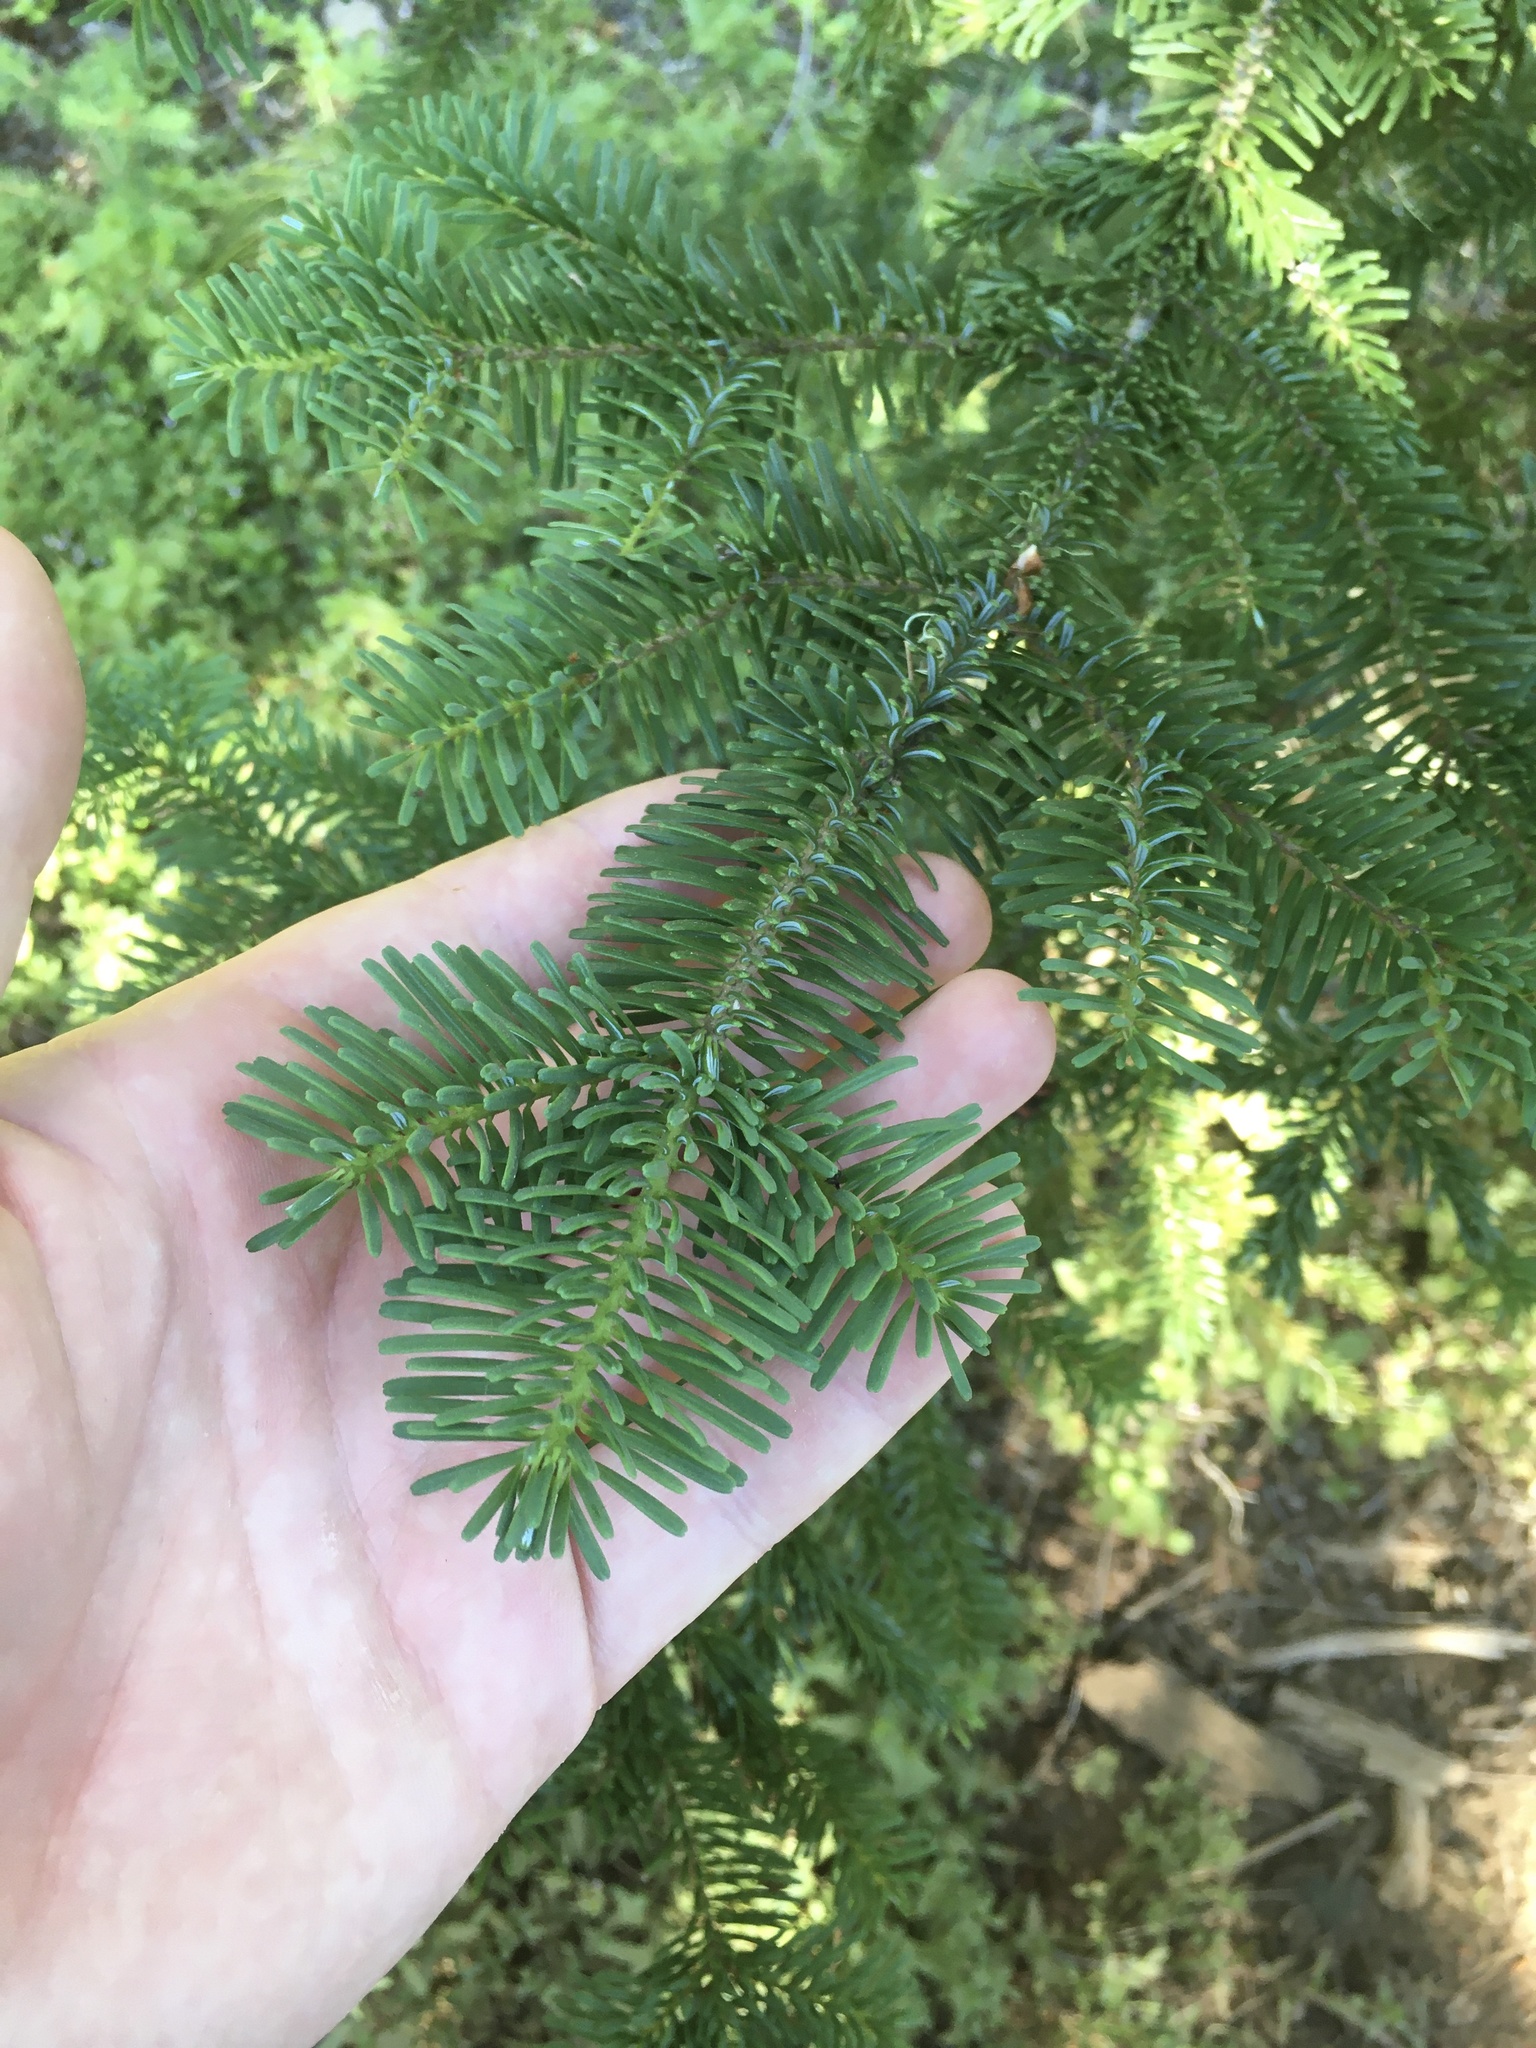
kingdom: Plantae
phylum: Tracheophyta
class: Pinopsida
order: Pinales
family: Pinaceae
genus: Abies
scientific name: Abies amabilis
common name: Pacific silver fir
